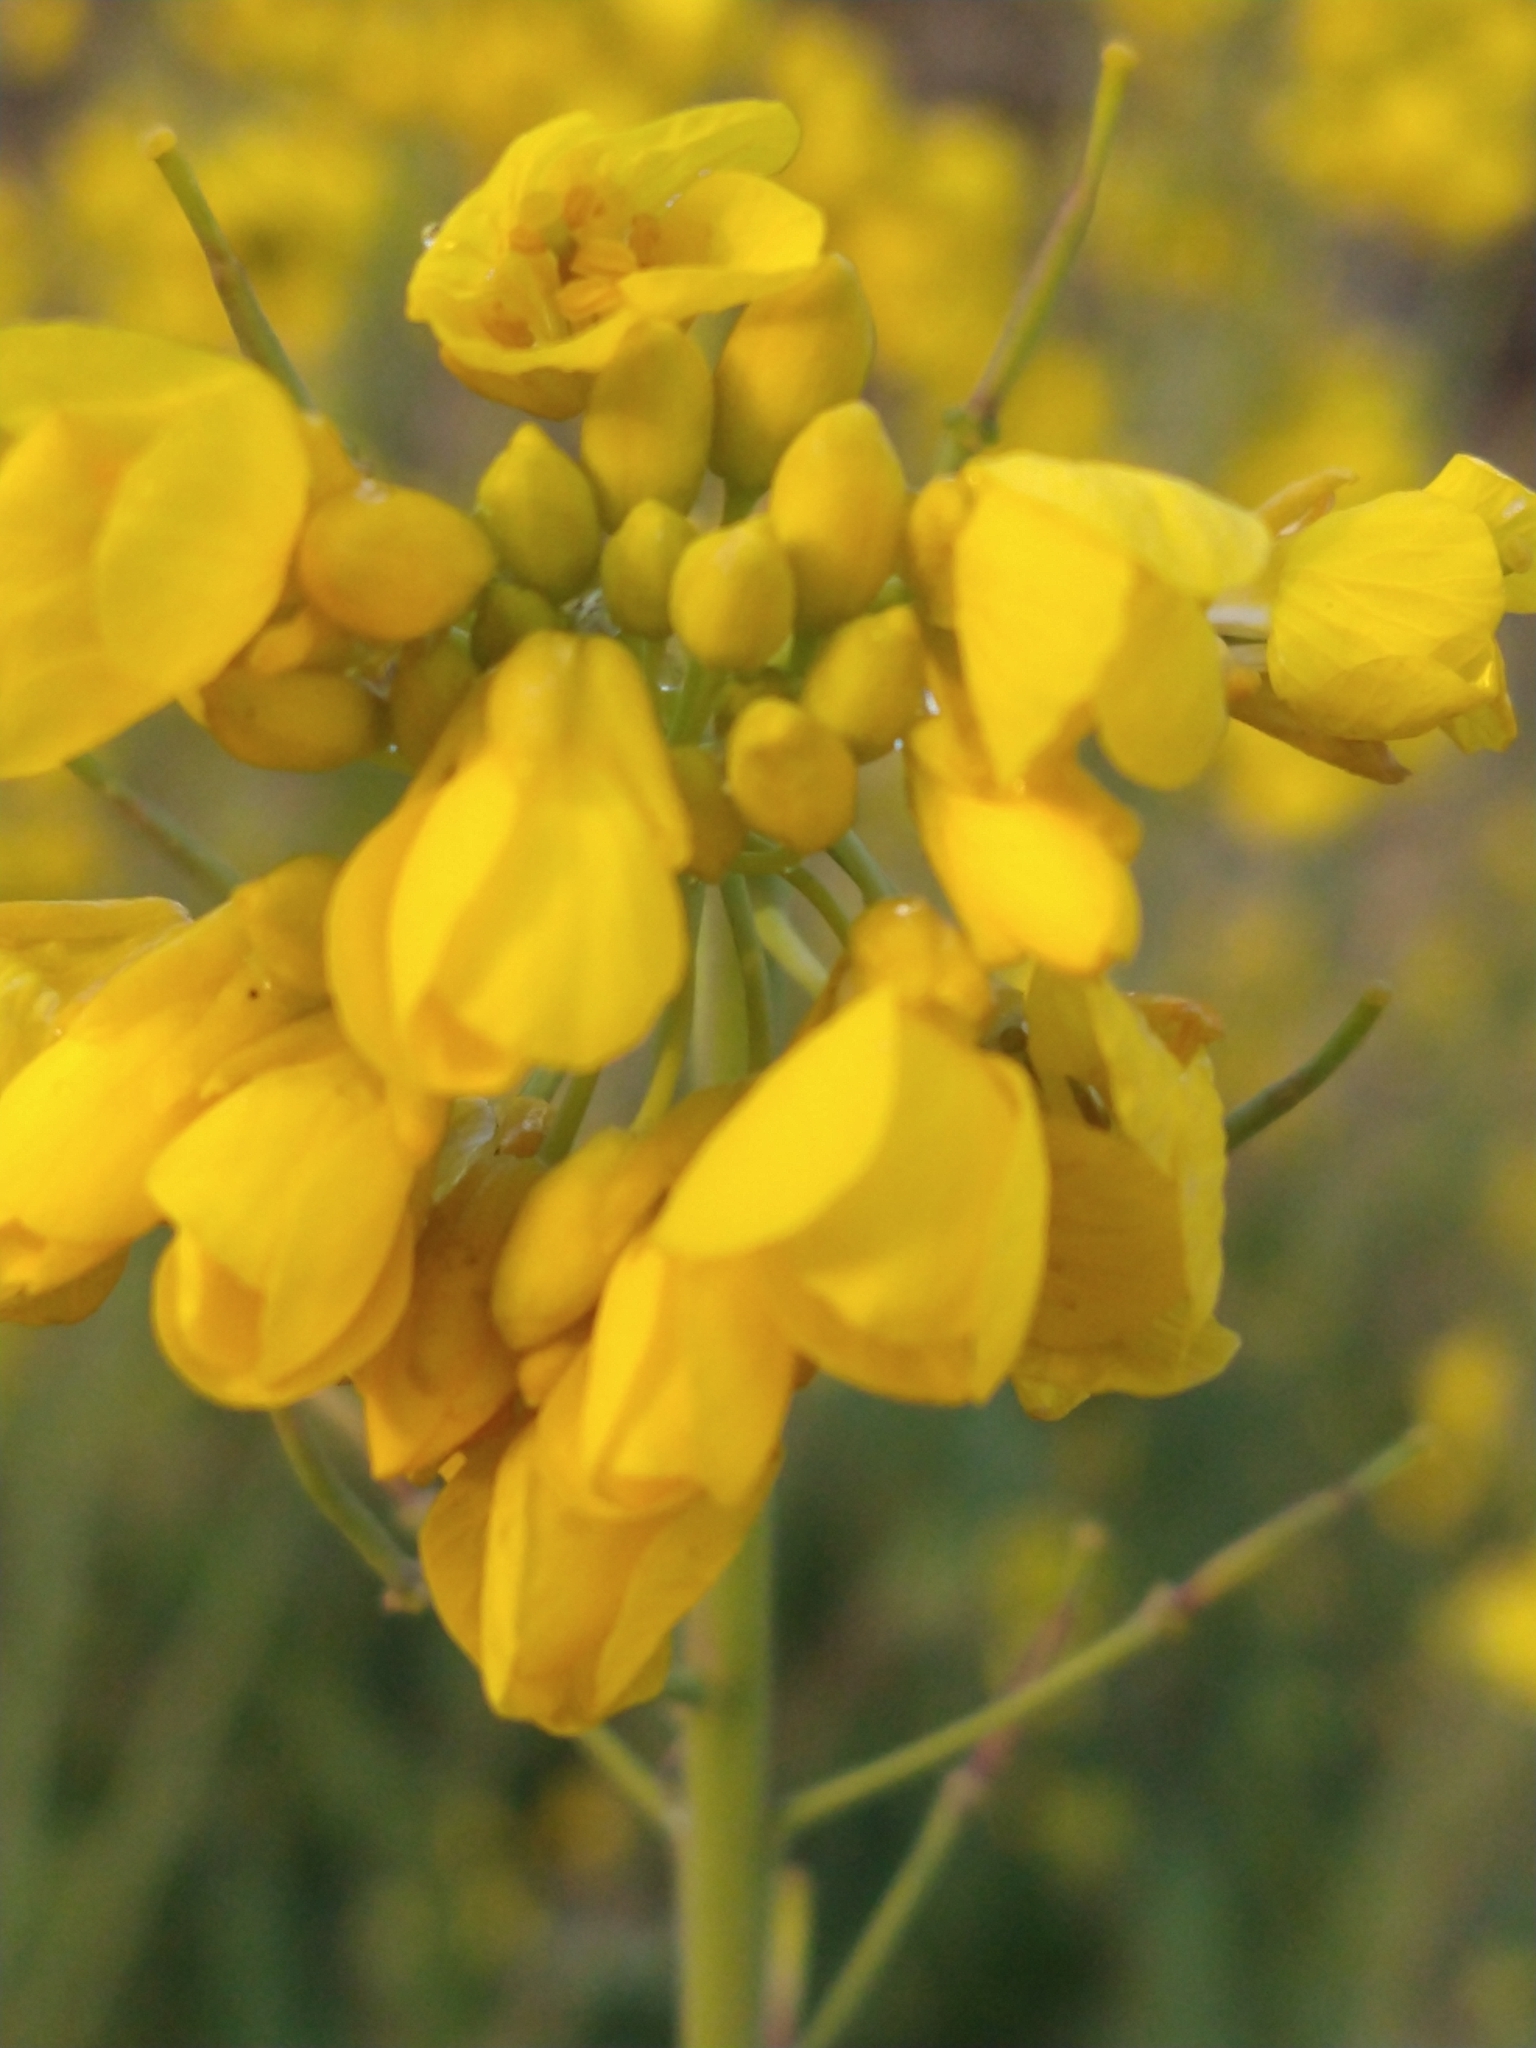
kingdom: Plantae
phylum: Tracheophyta
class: Magnoliopsida
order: Brassicales
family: Brassicaceae
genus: Brassica
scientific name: Brassica rapa
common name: Field mustard
